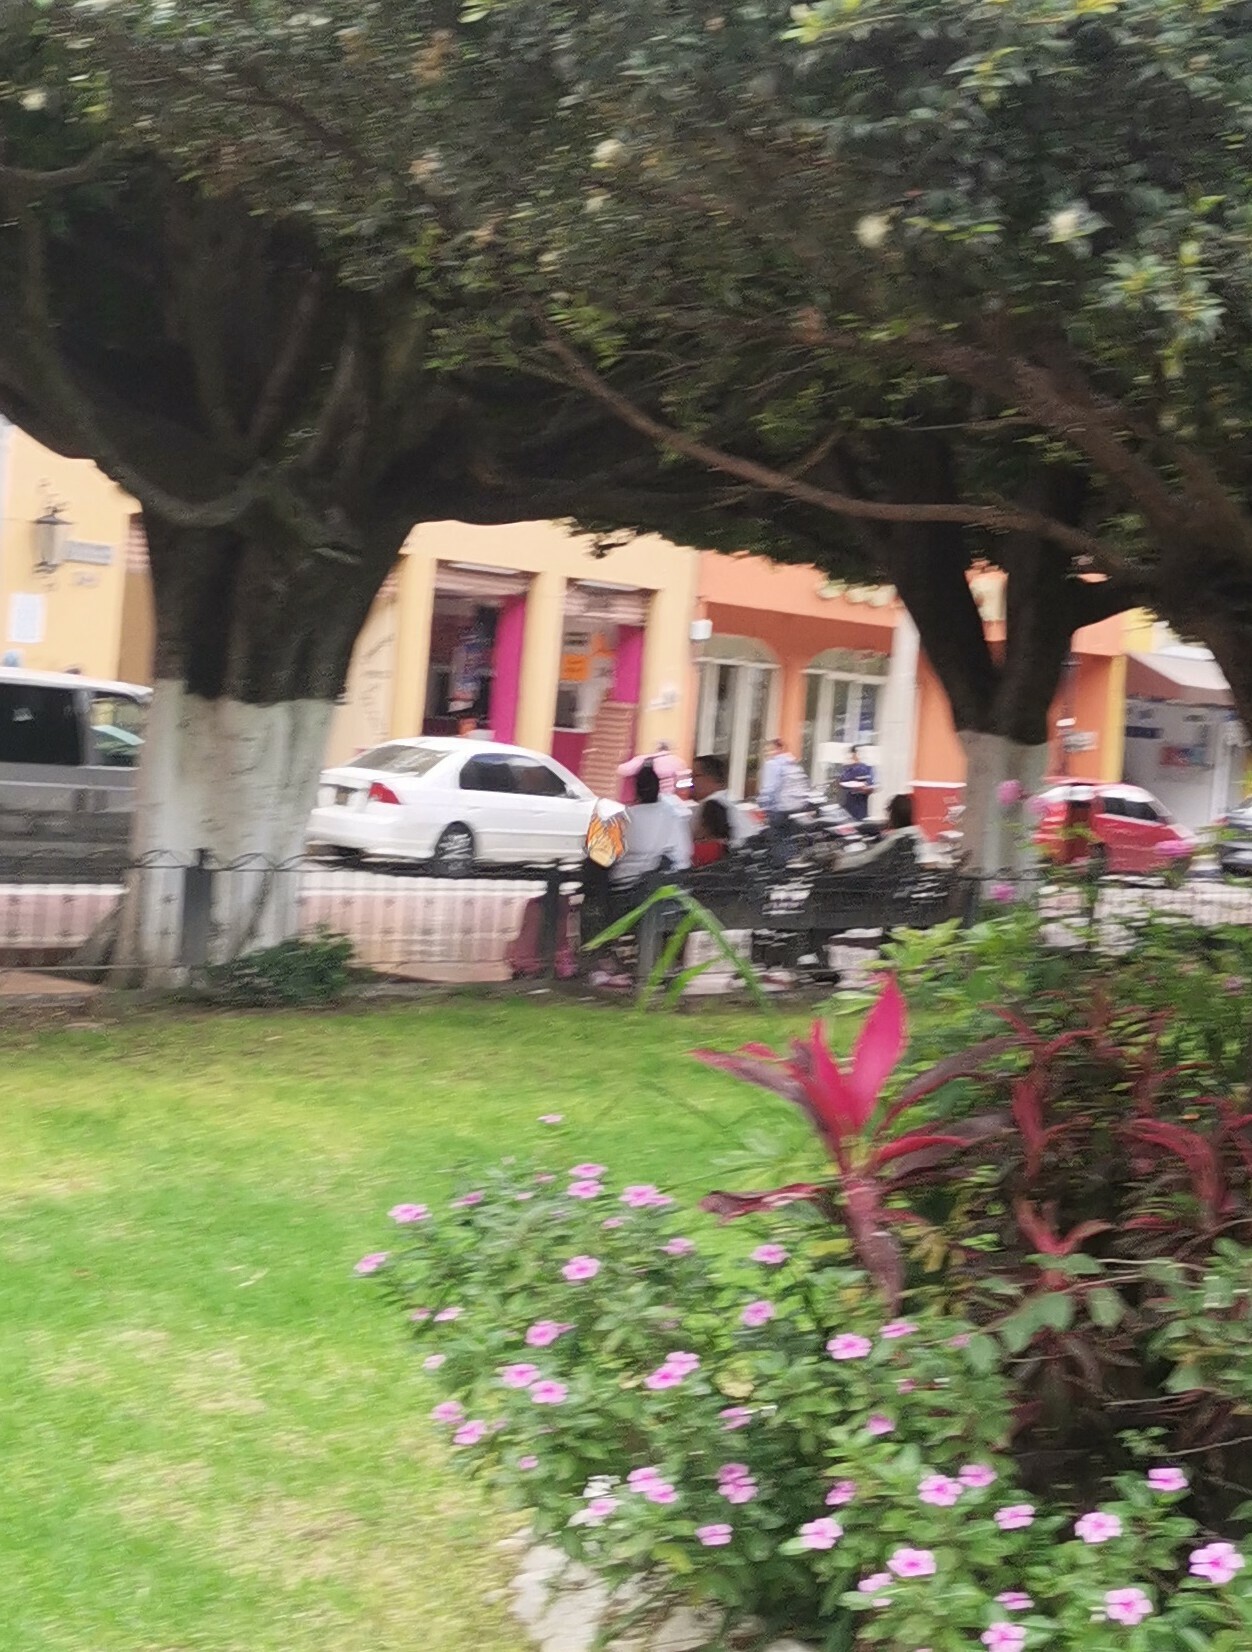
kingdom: Animalia
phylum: Arthropoda
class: Insecta
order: Lepidoptera
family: Nymphalidae
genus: Danaus
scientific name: Danaus plexippus
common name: Monarch
